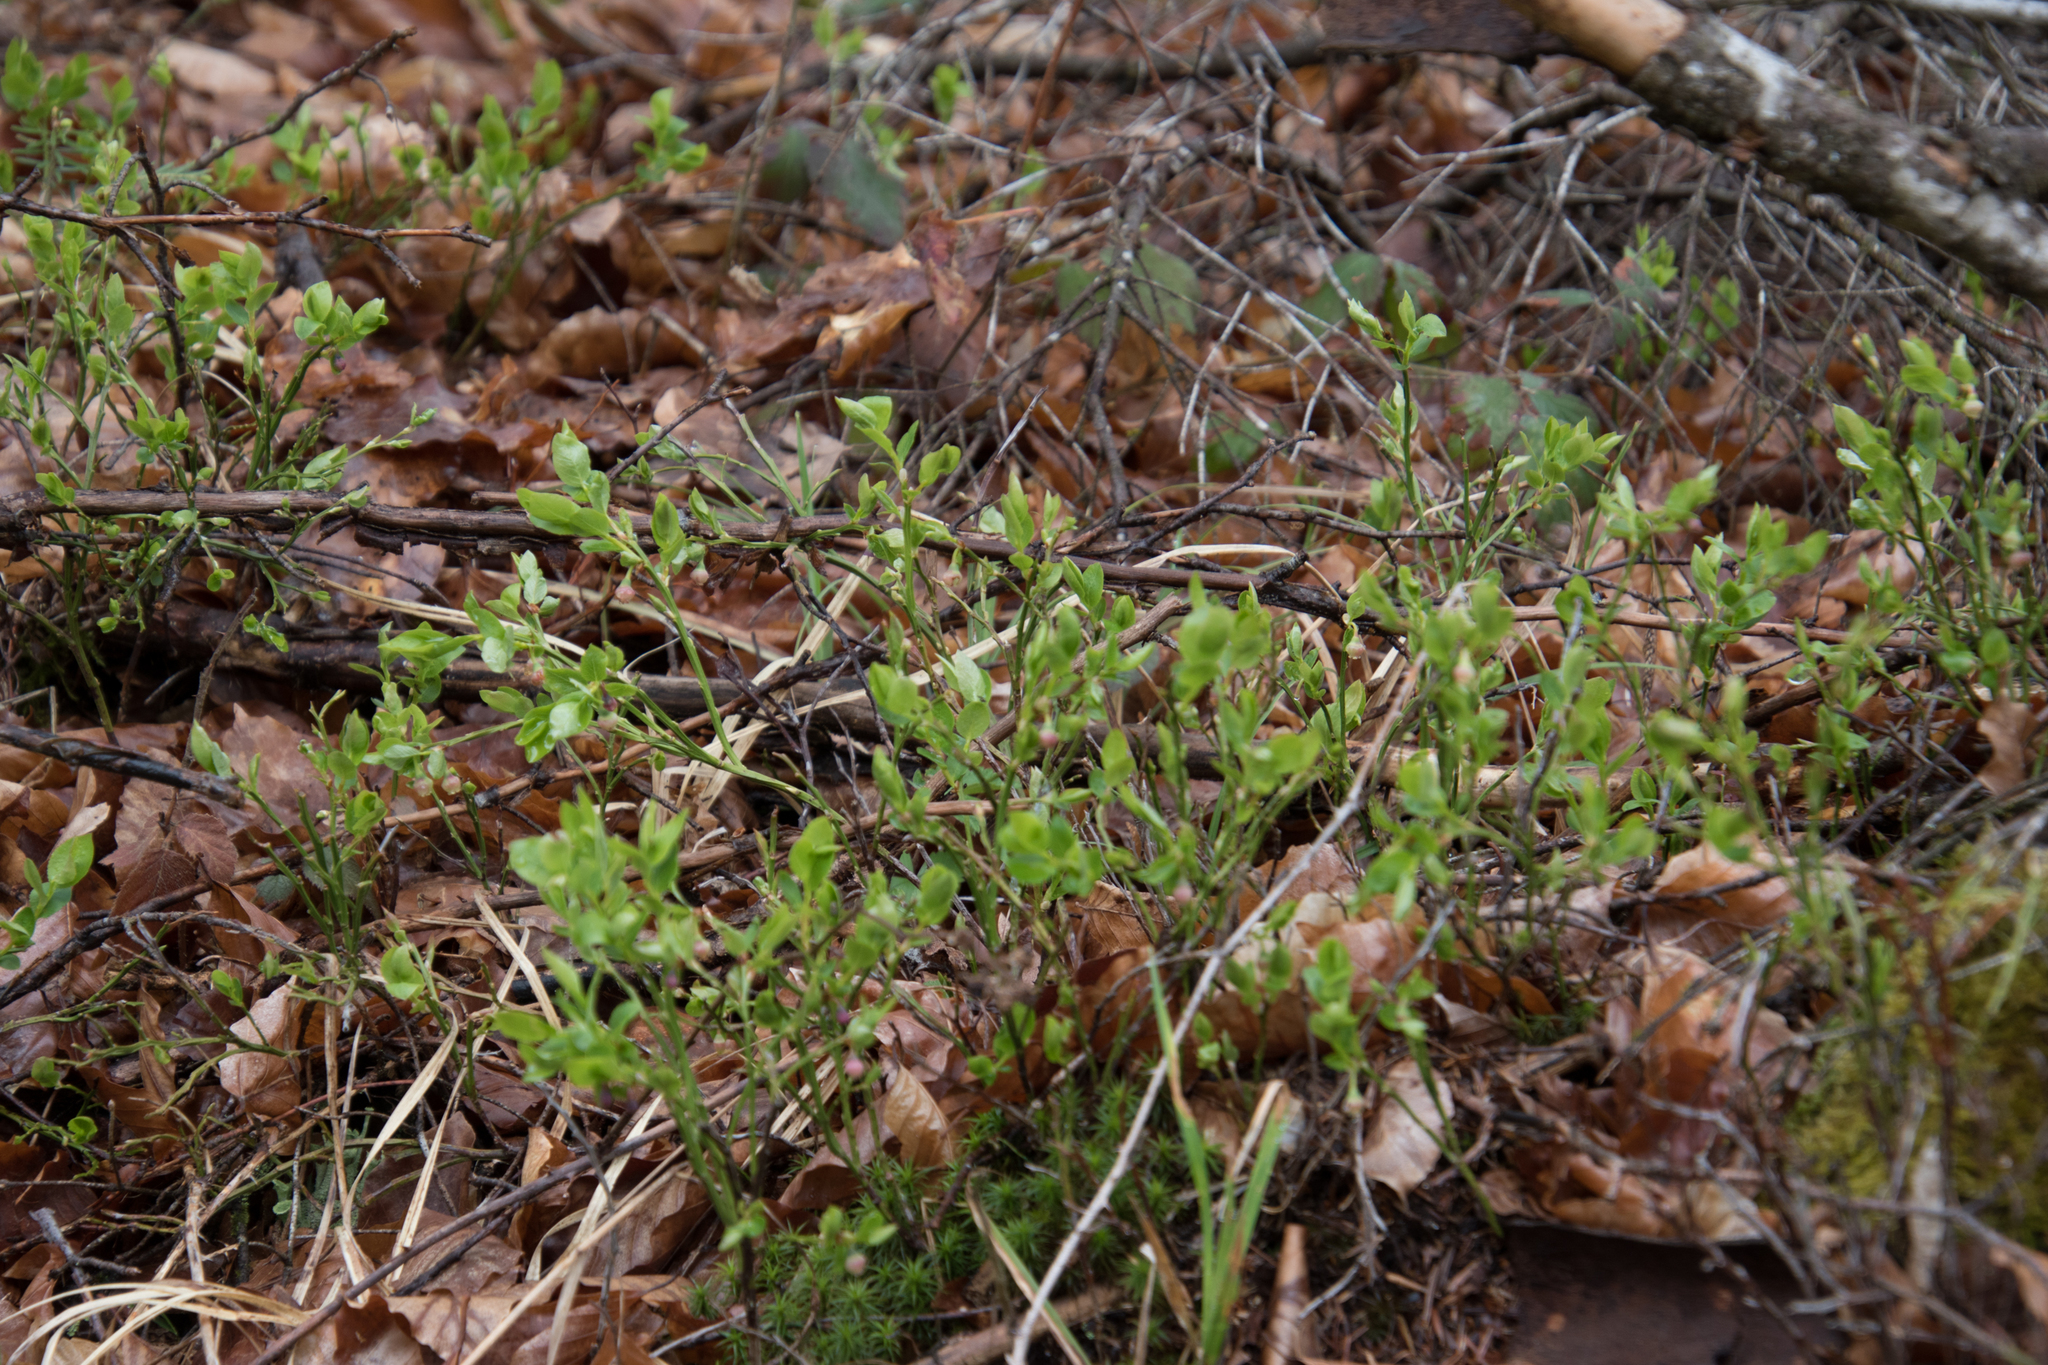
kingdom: Plantae
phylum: Tracheophyta
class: Magnoliopsida
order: Ericales
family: Ericaceae
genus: Vaccinium
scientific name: Vaccinium myrtillus
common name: Bilberry
